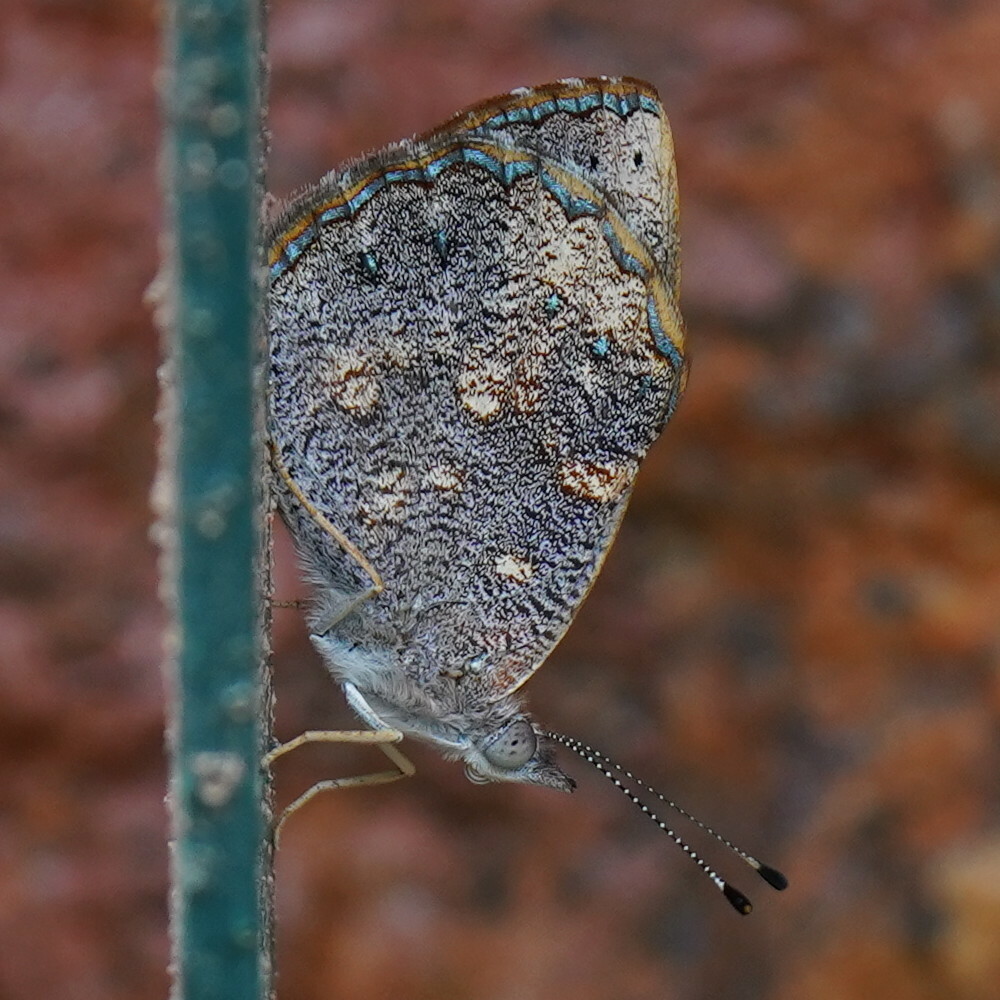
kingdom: Animalia
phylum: Arthropoda
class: Insecta
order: Lepidoptera
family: Nymphalidae
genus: Haematera
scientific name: Haematera pyrame
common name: Blind eighty-eight
